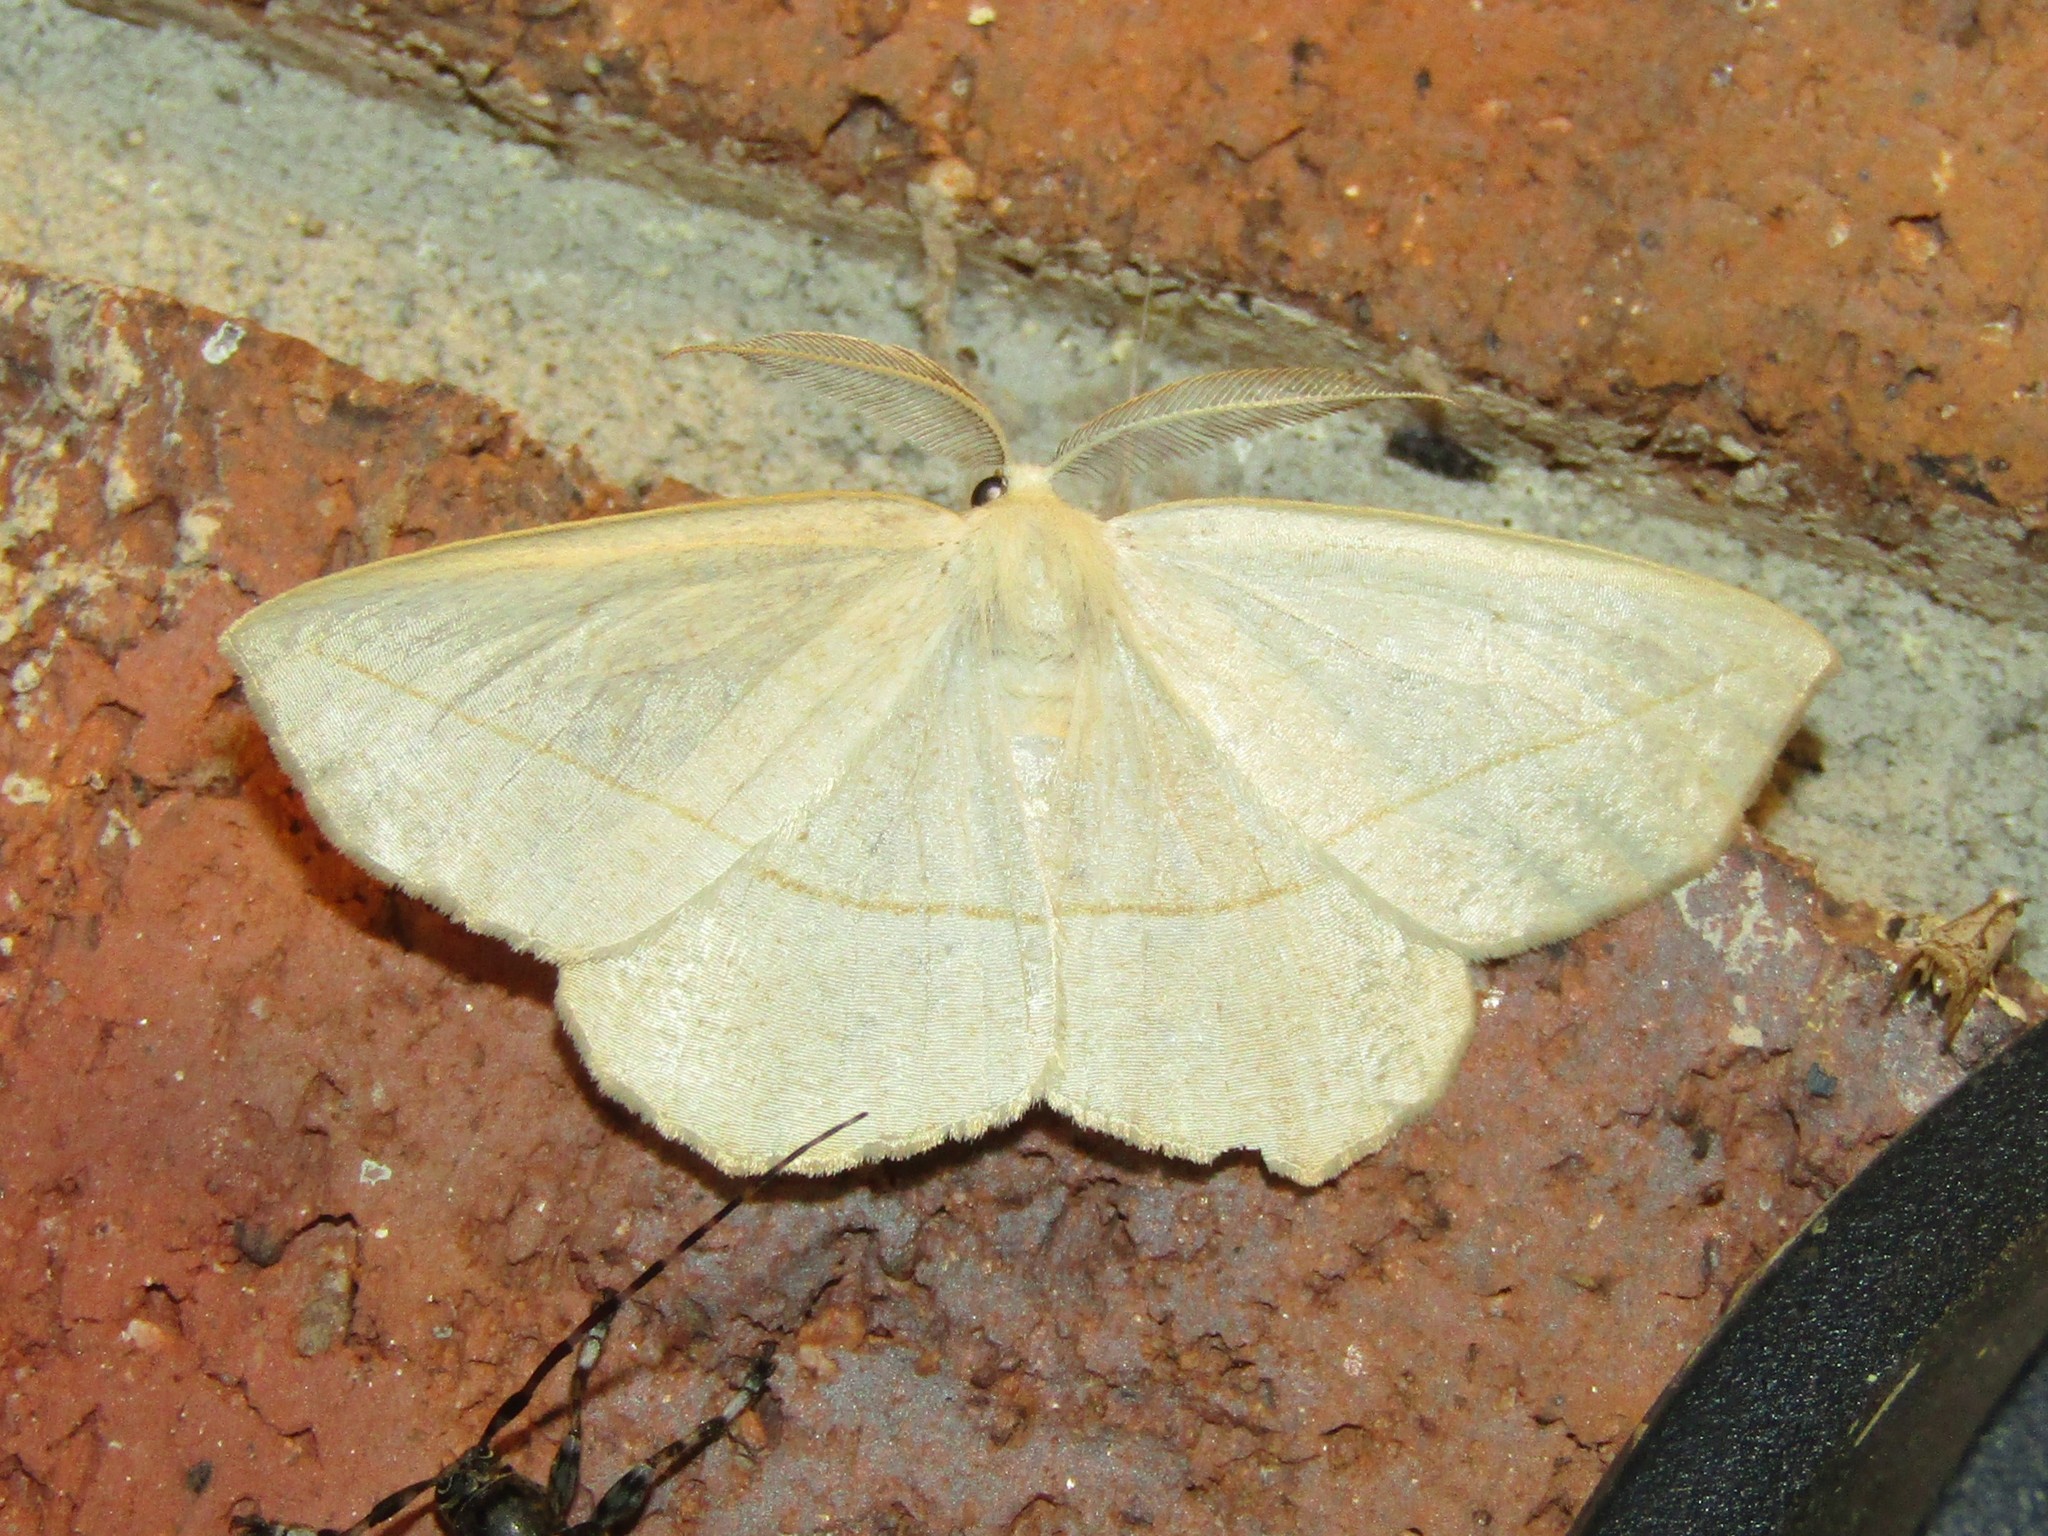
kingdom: Animalia
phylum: Arthropoda
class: Insecta
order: Lepidoptera
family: Geometridae
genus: Eusarca
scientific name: Eusarca confusaria
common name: Confused eusarca
